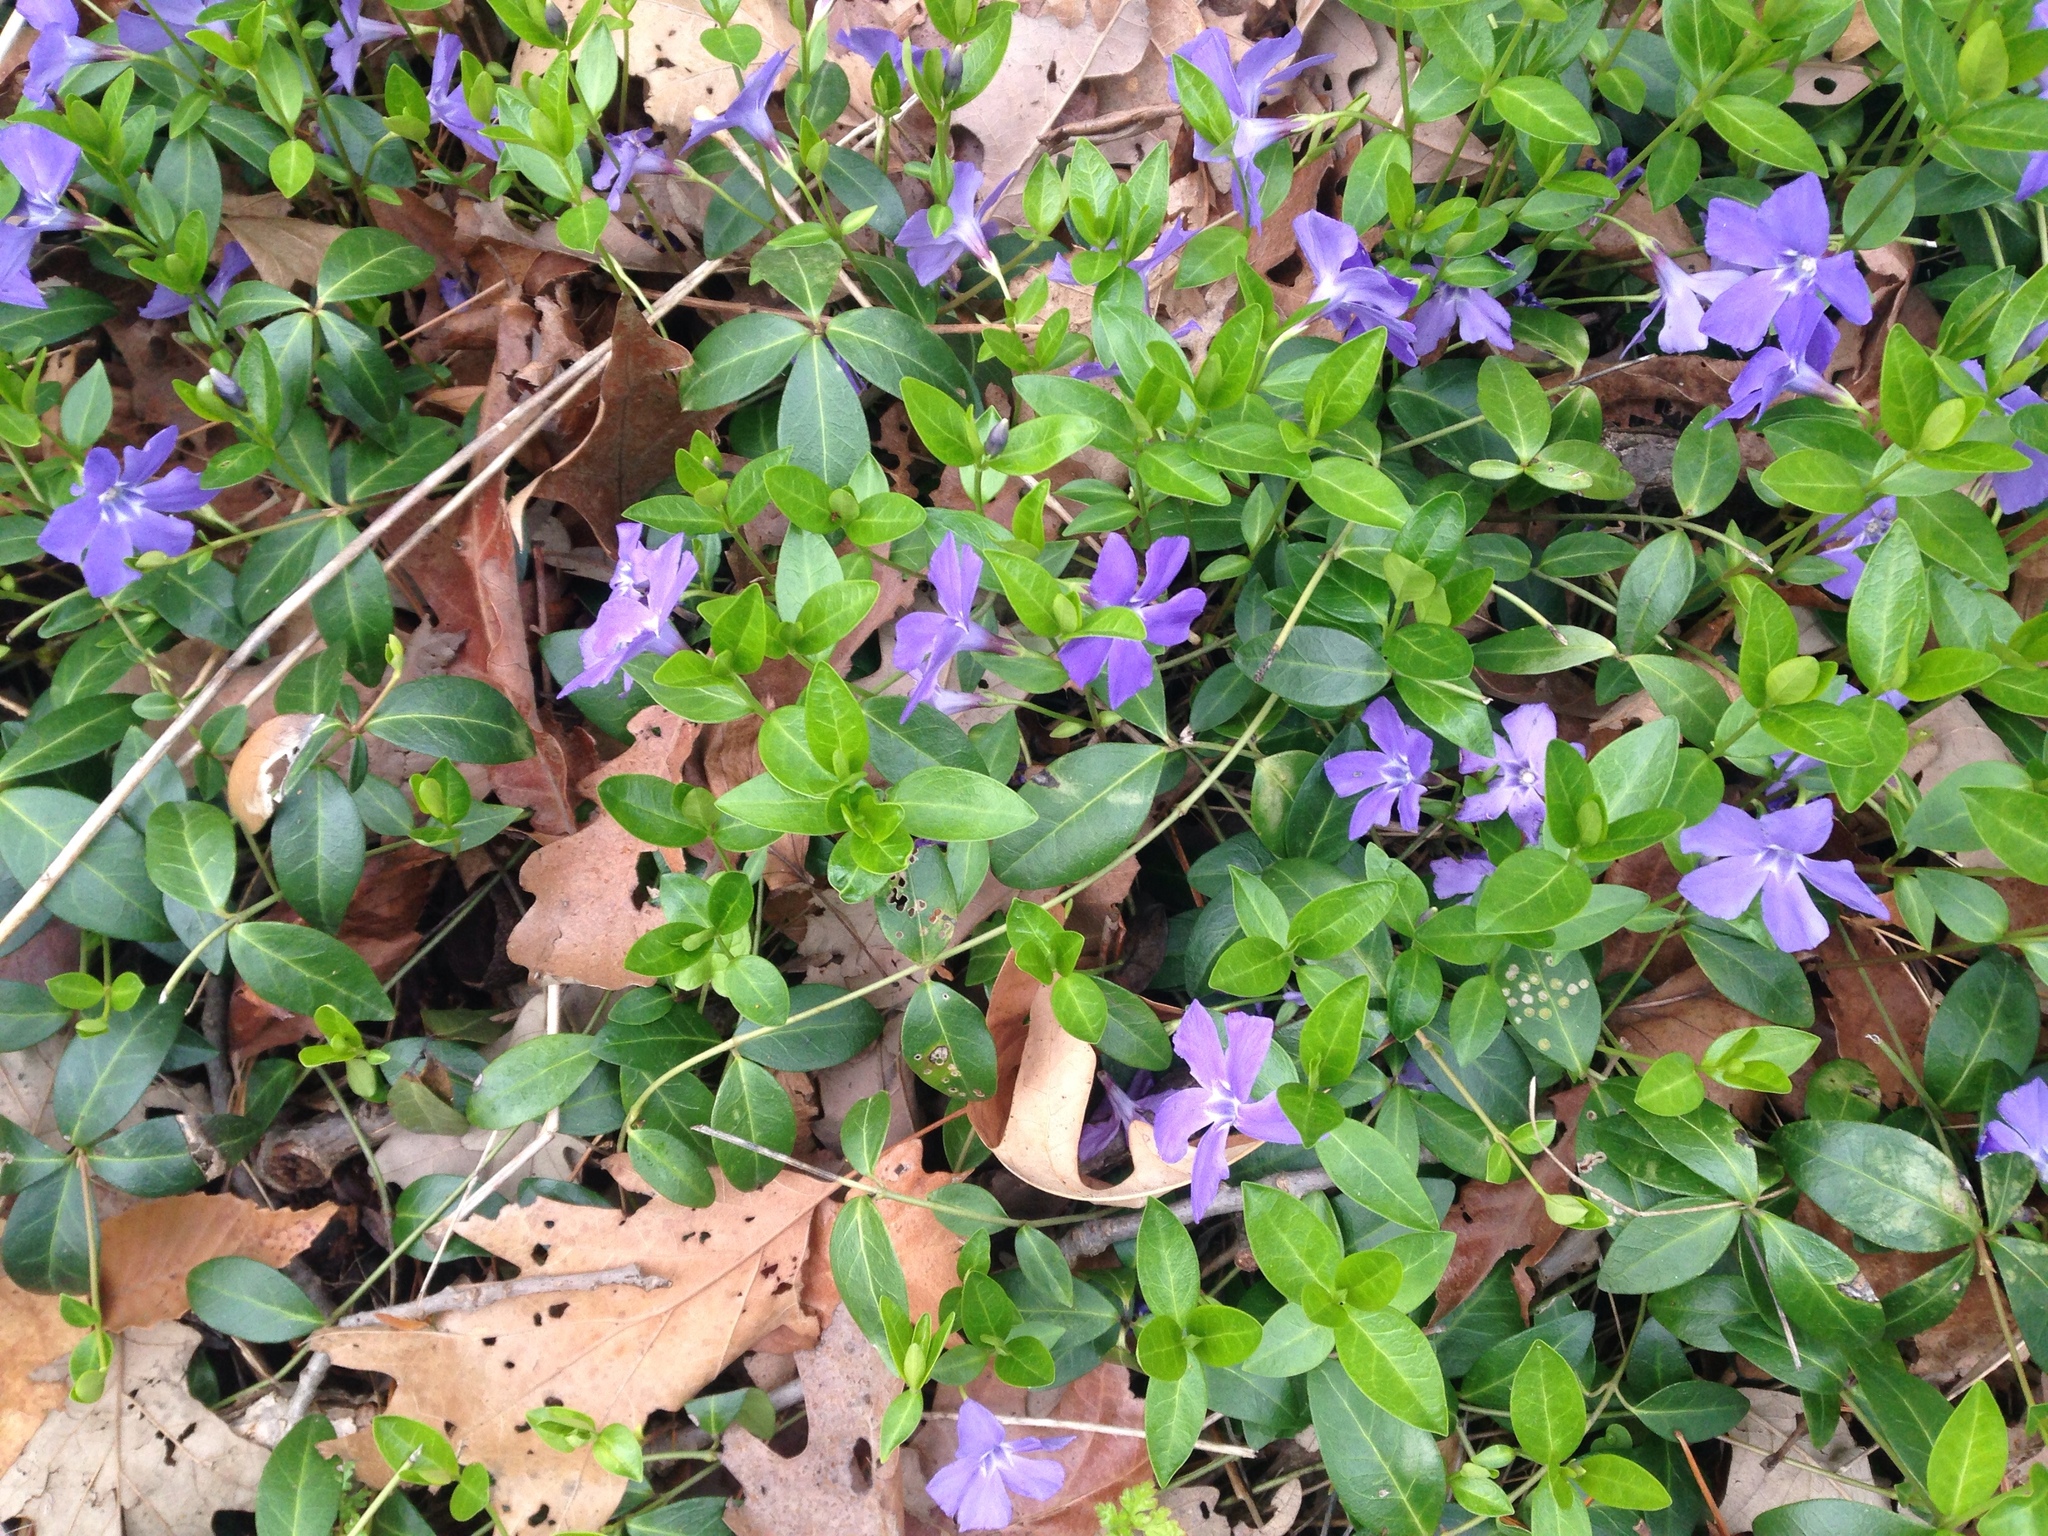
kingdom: Plantae
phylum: Tracheophyta
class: Magnoliopsida
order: Gentianales
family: Apocynaceae
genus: Vinca
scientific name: Vinca minor
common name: Lesser periwinkle
